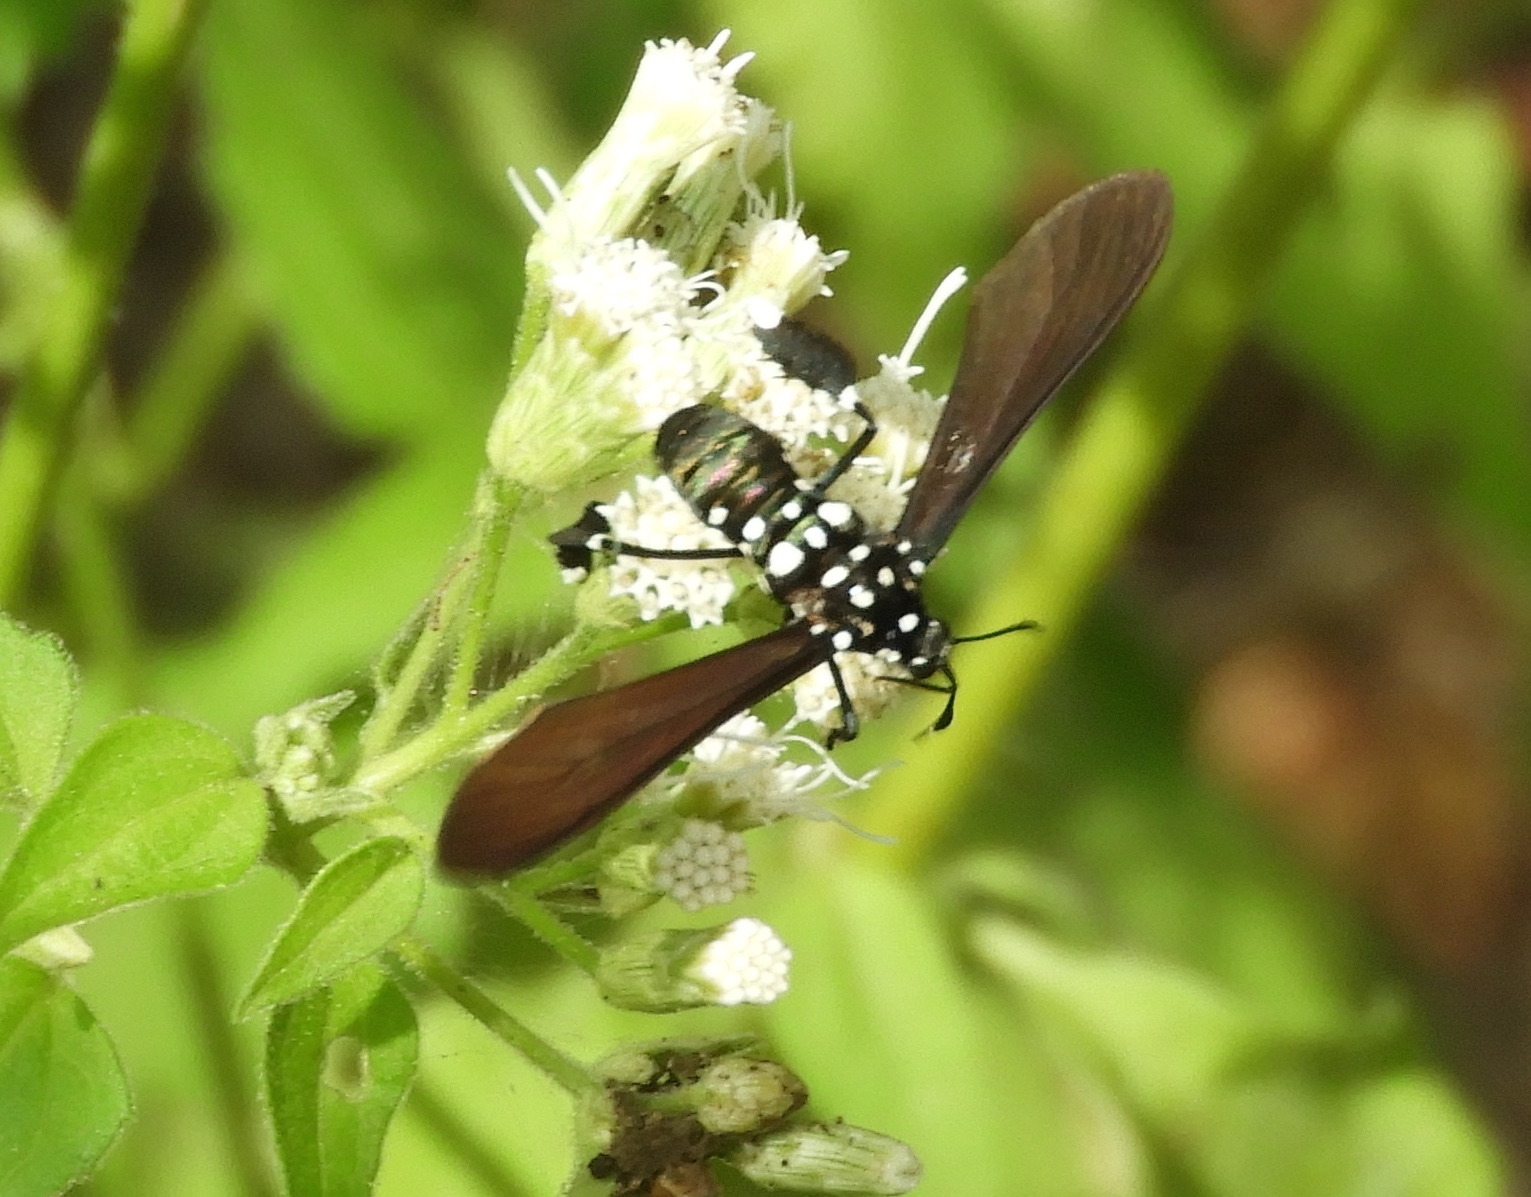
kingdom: Animalia
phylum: Arthropoda
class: Insecta
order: Lepidoptera
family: Erebidae
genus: Horama
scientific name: Horama plumipes
